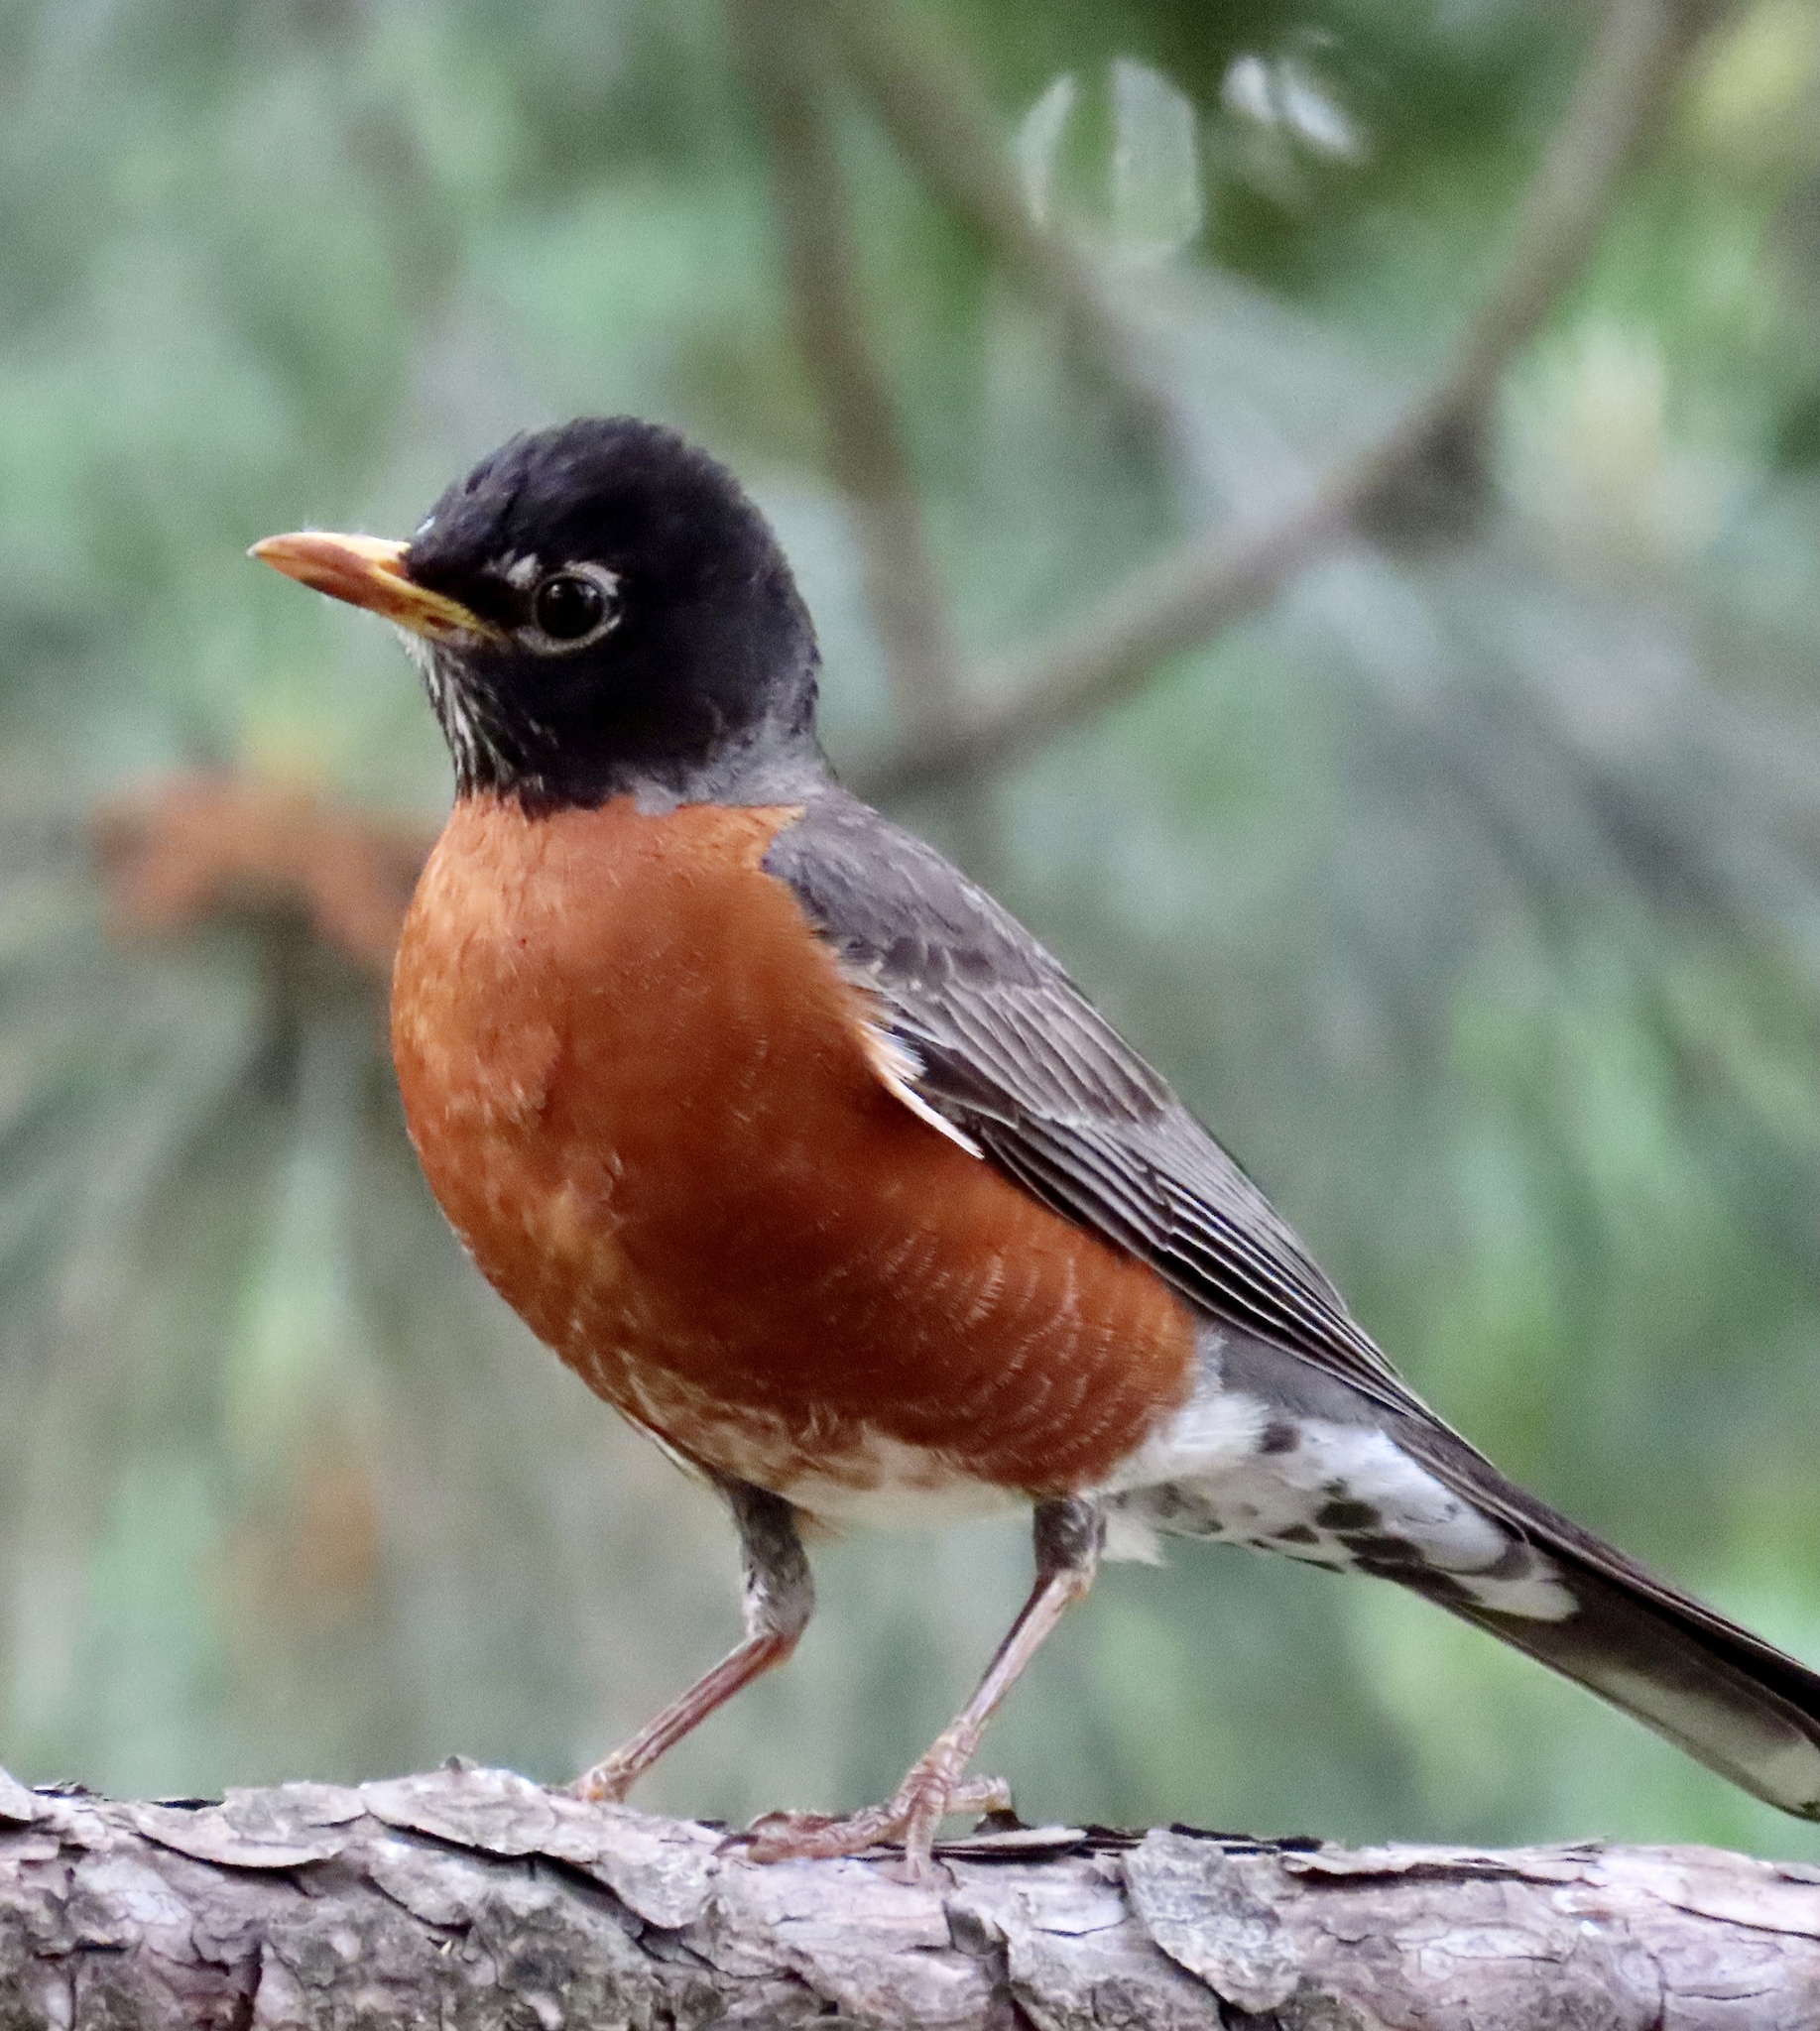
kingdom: Animalia
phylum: Chordata
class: Aves
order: Passeriformes
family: Turdidae
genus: Turdus
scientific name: Turdus migratorius
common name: American robin
